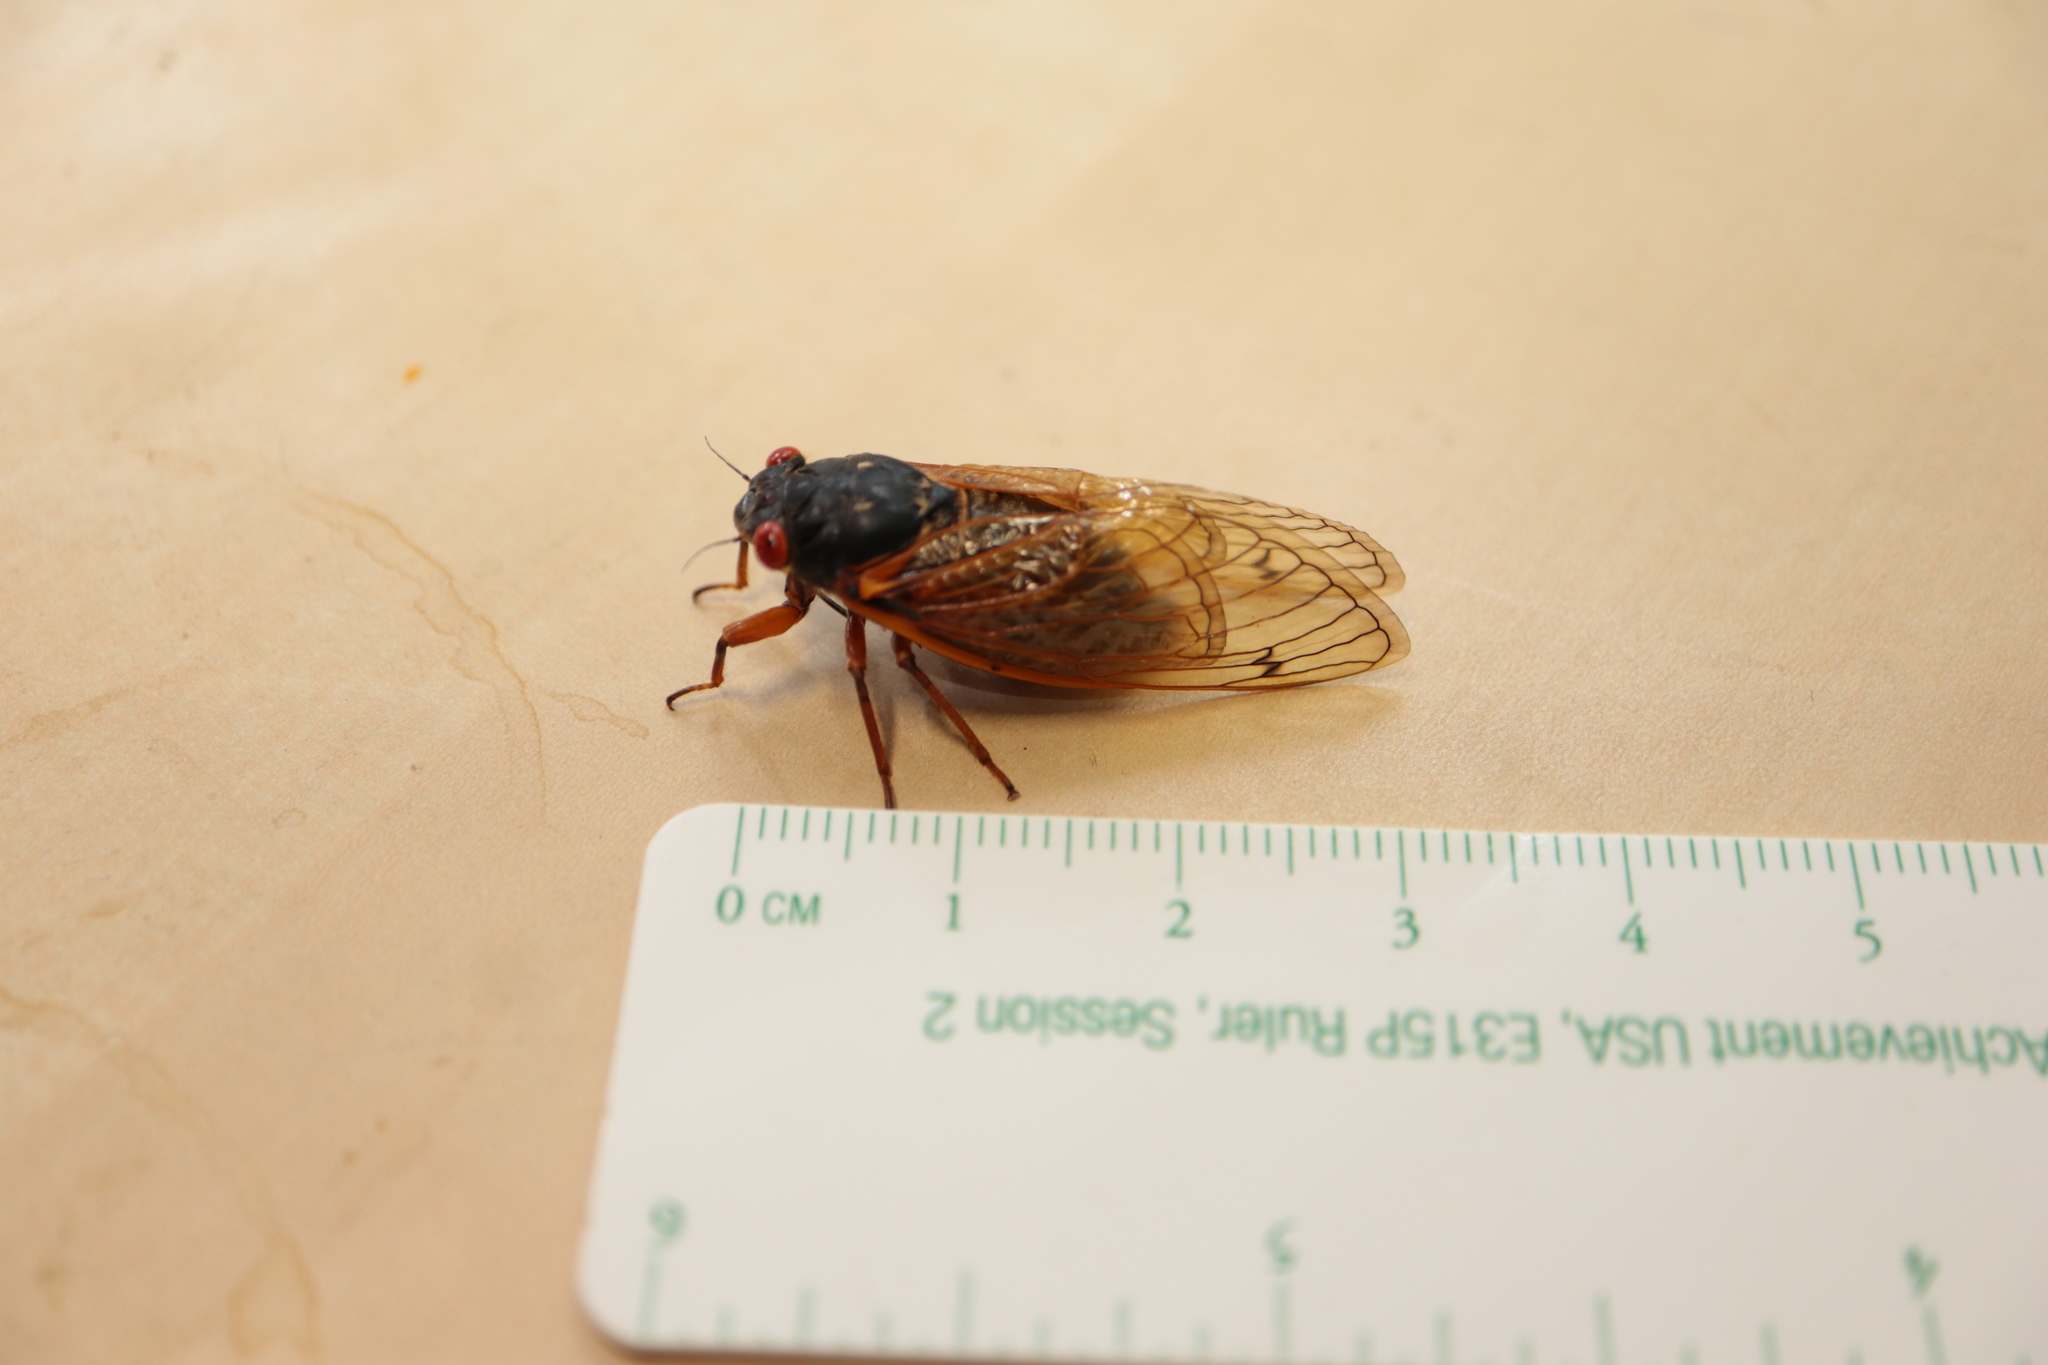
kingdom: Animalia
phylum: Arthropoda
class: Insecta
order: Hemiptera
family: Cicadidae
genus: Magicicada
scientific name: Magicicada cassini
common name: Cassin's 17-year cicada
